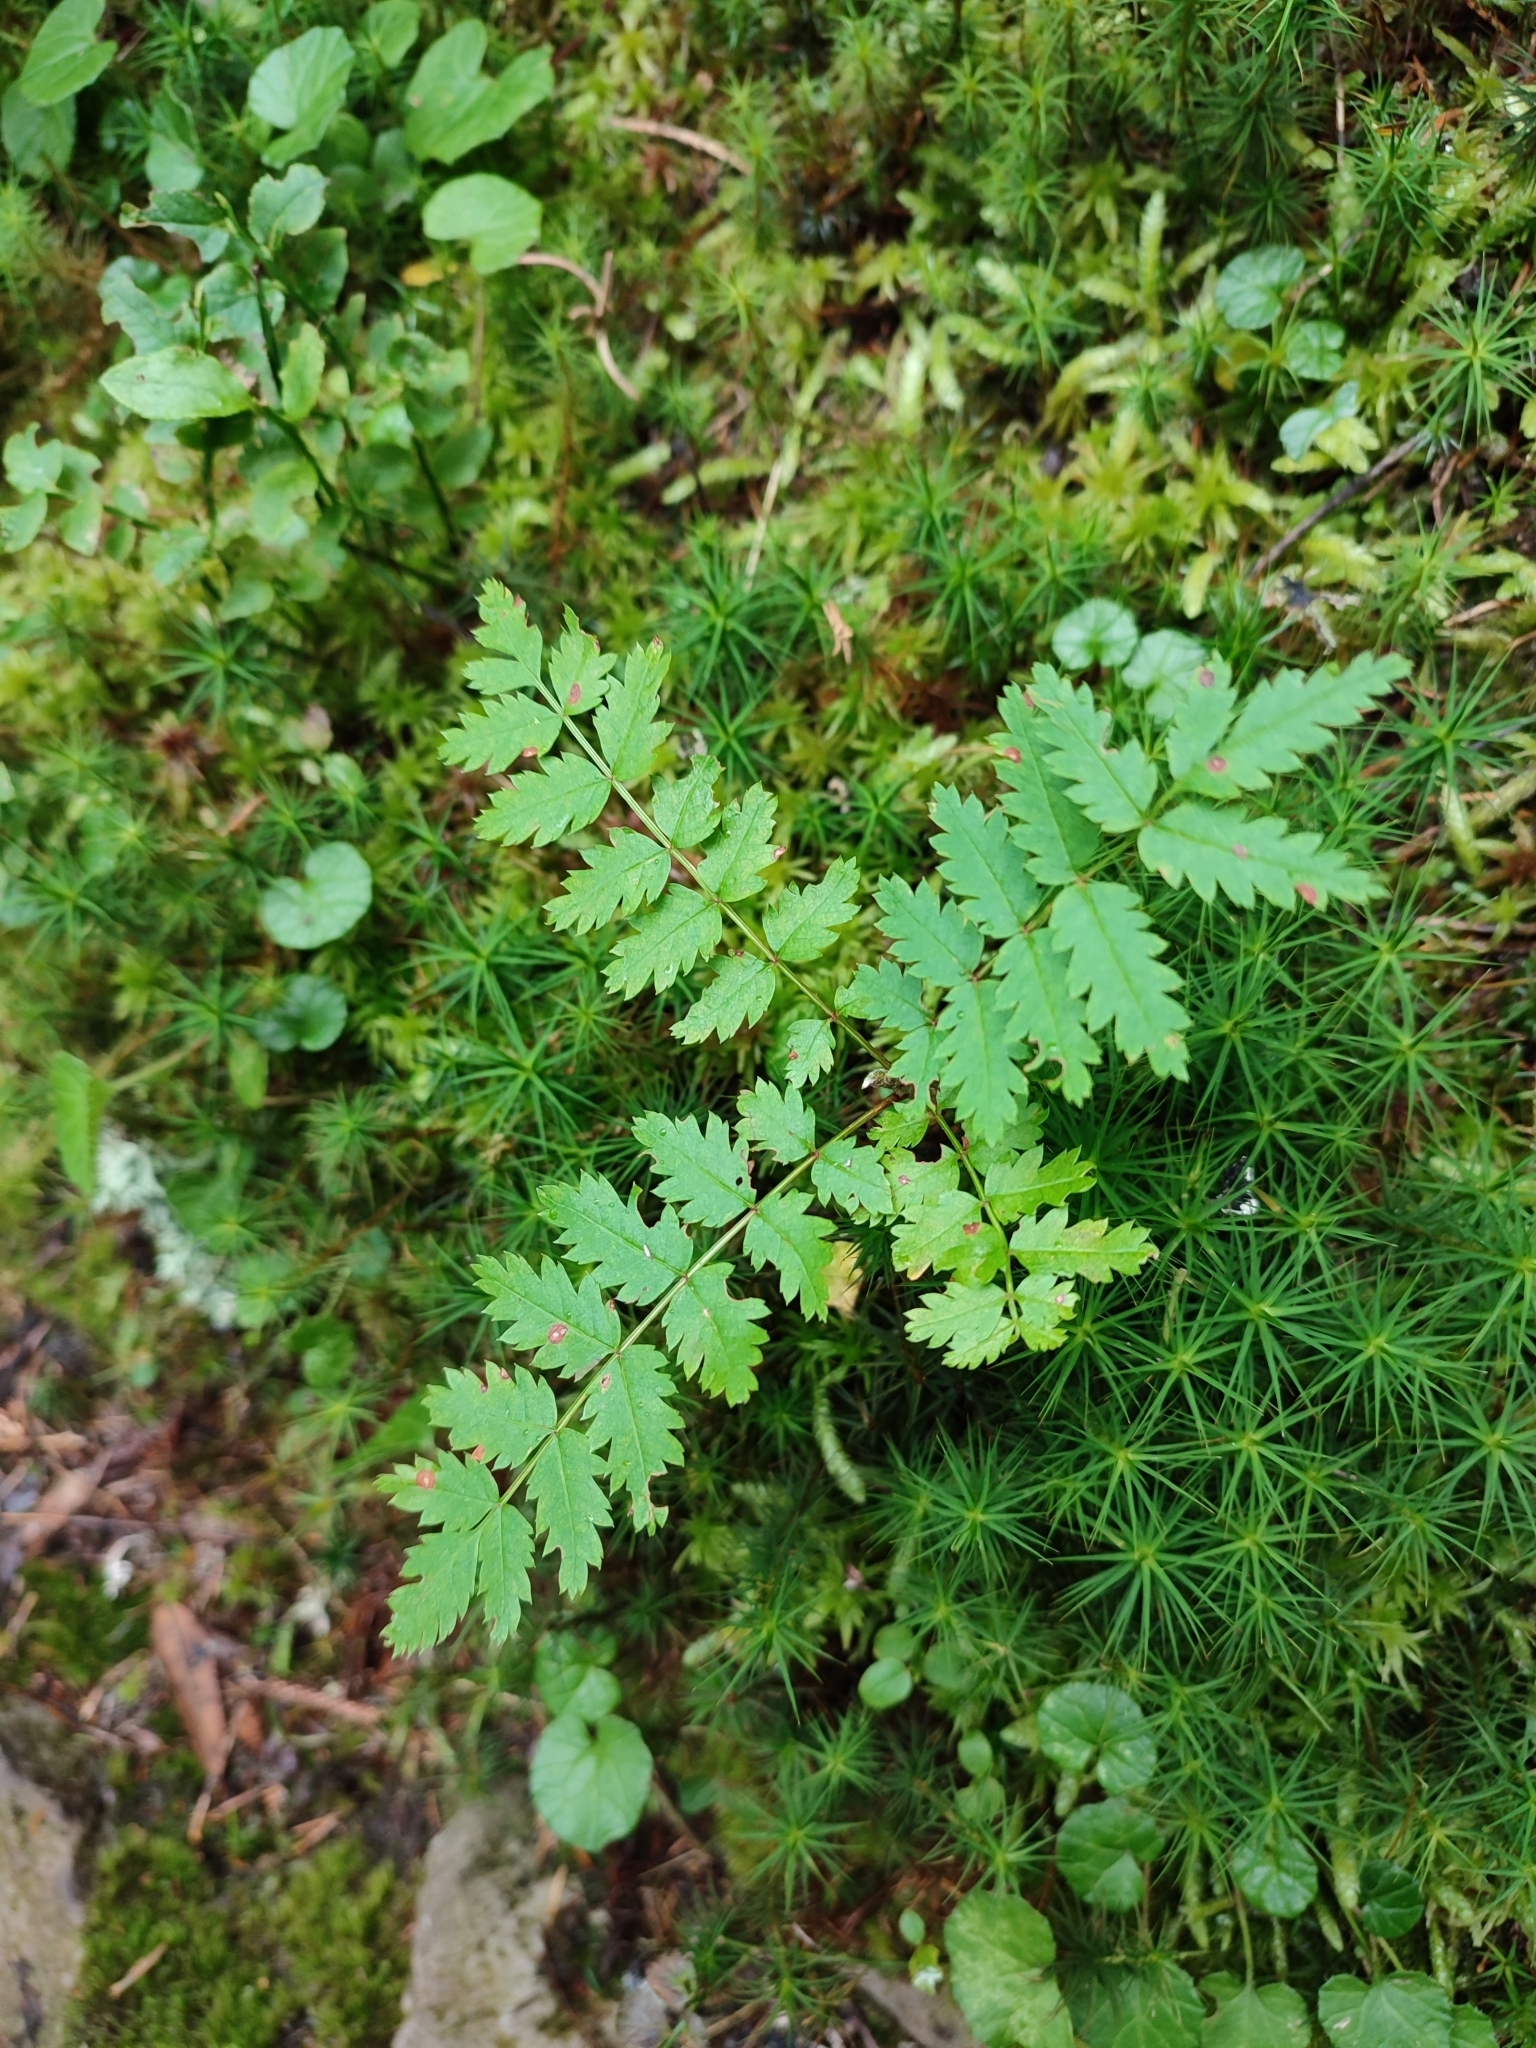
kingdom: Plantae
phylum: Tracheophyta
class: Magnoliopsida
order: Rosales
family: Rosaceae
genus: Sorbus
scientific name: Sorbus aucuparia
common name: Rowan
